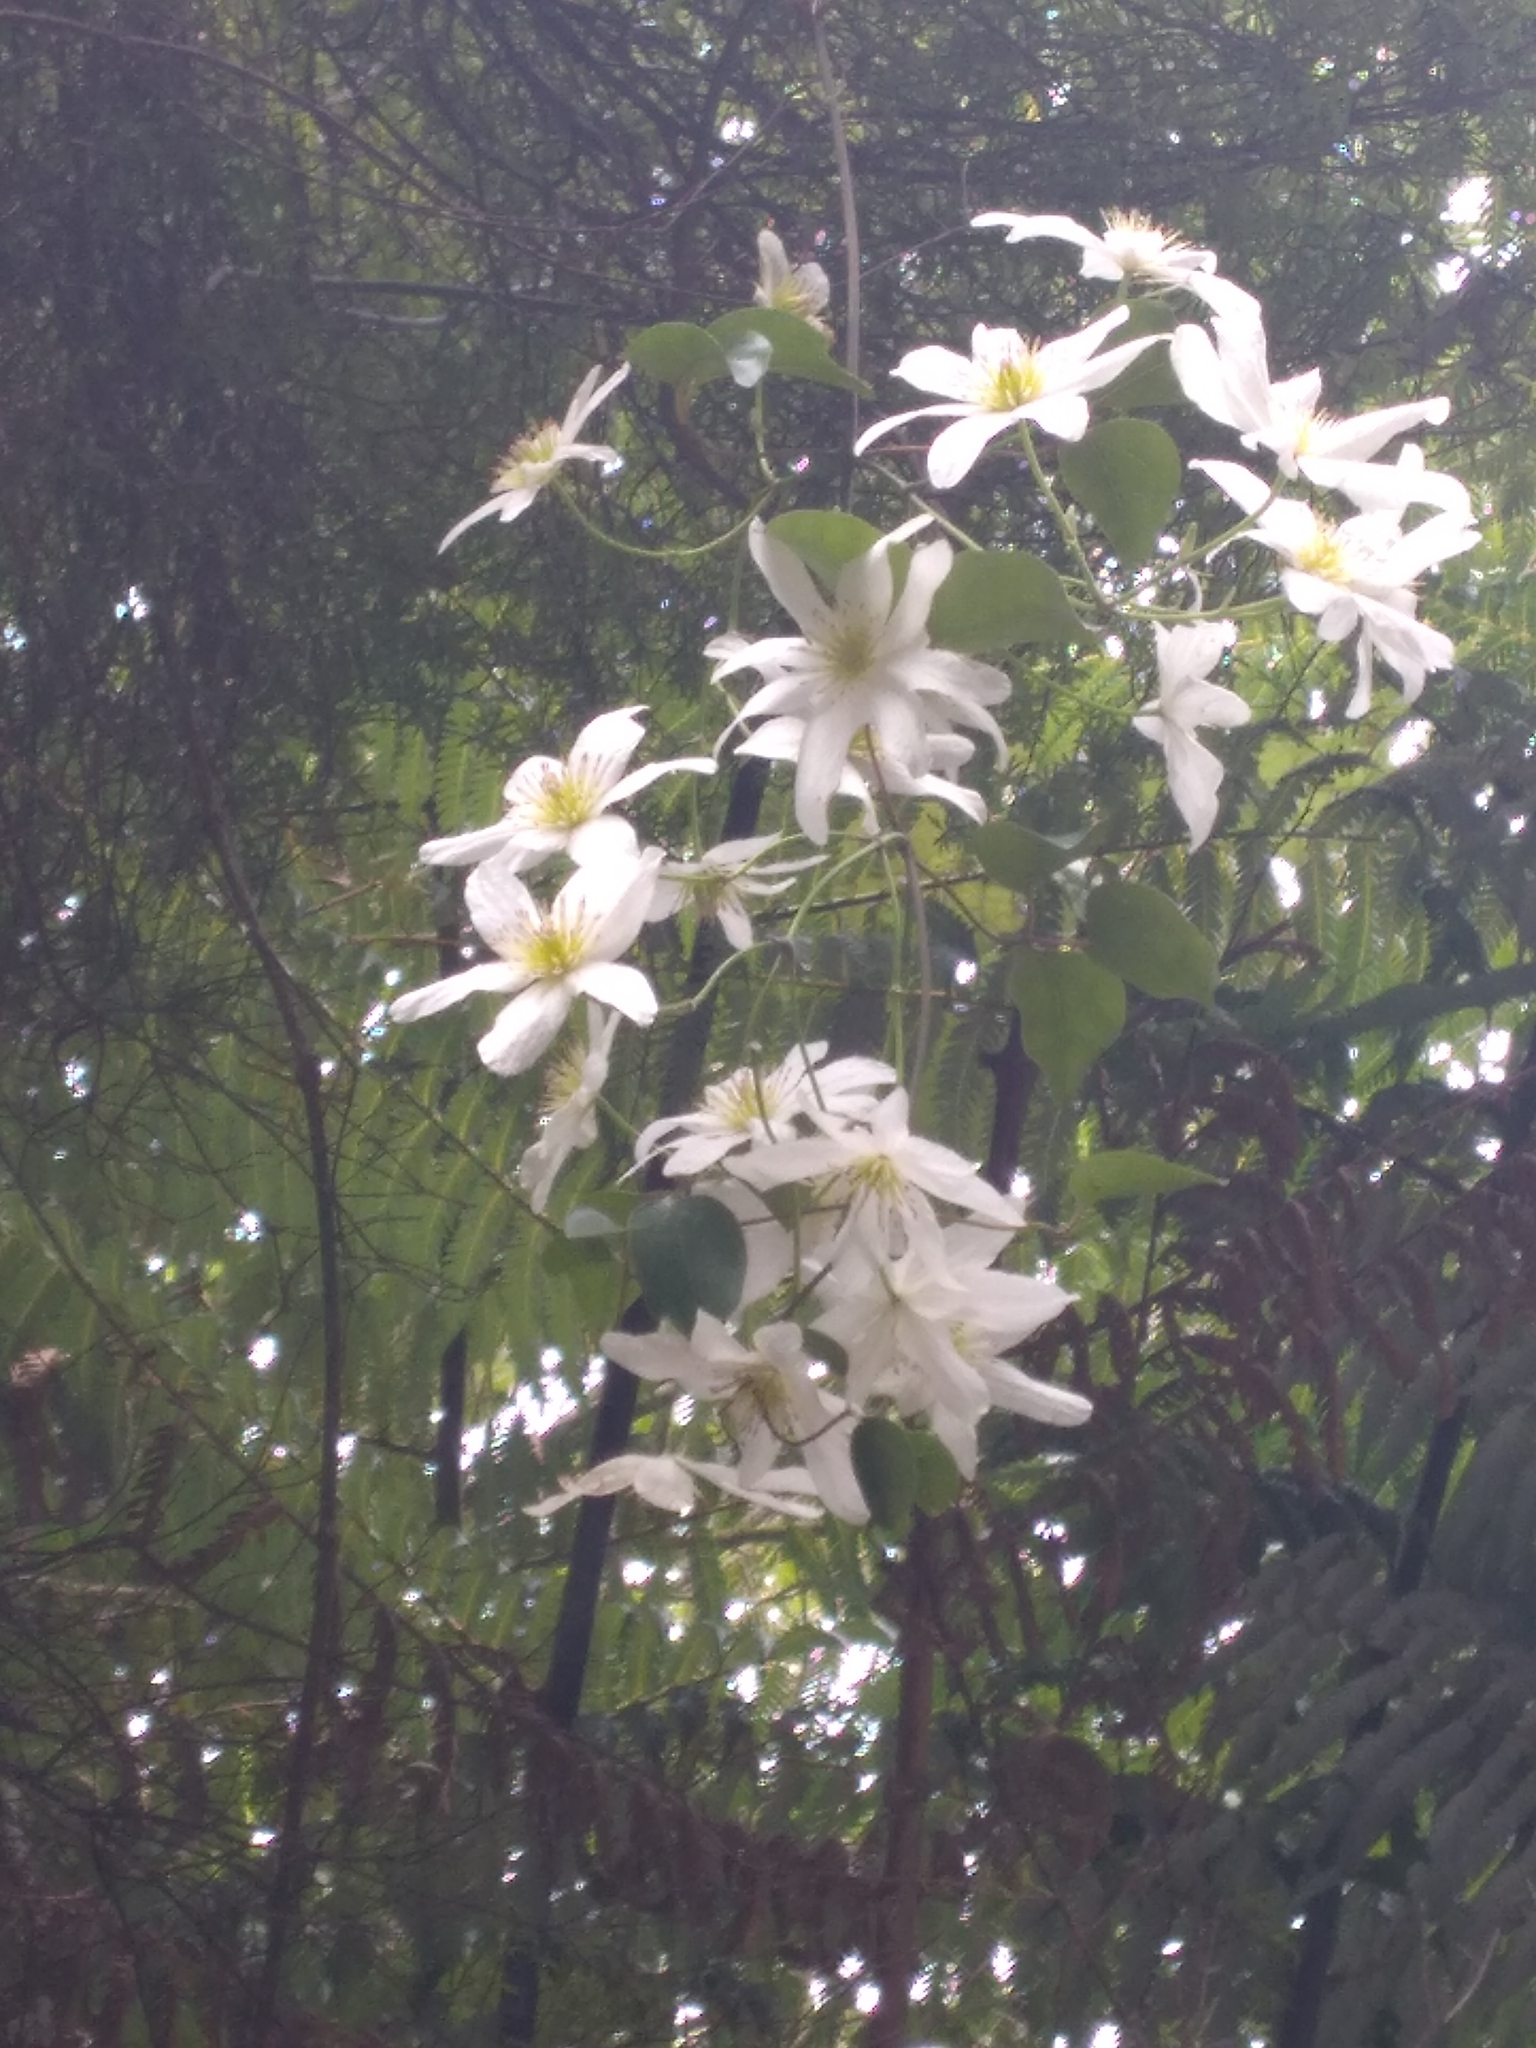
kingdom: Plantae
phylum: Tracheophyta
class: Magnoliopsida
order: Ranunculales
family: Ranunculaceae
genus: Clematis
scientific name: Clematis paniculata
